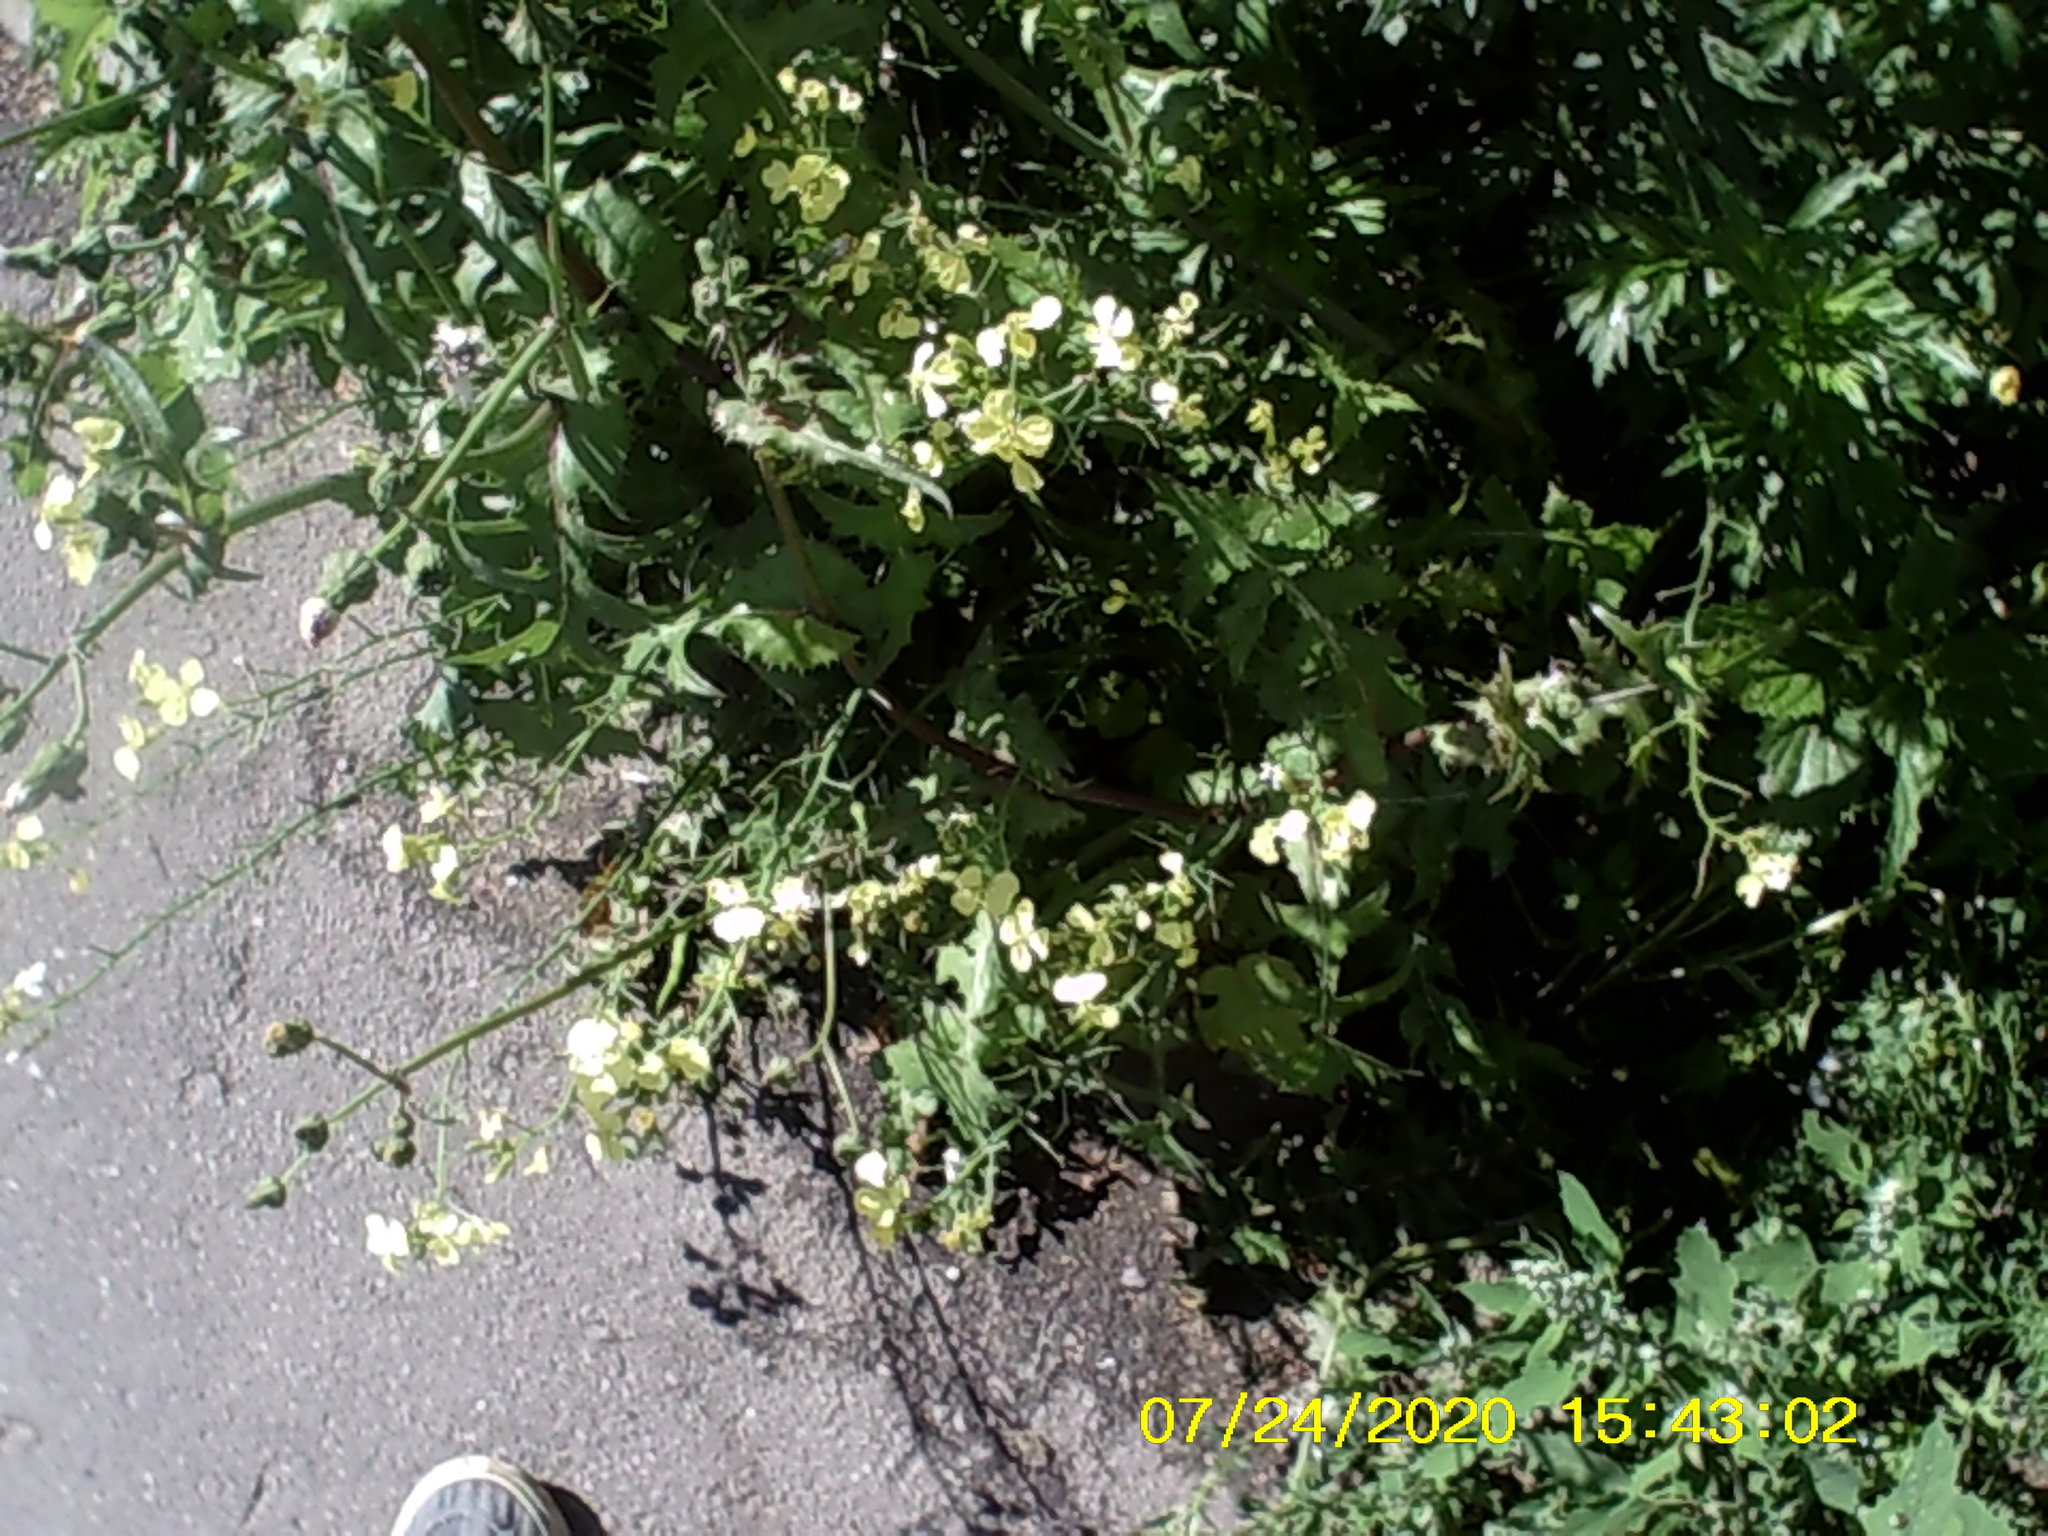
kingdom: Plantae
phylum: Tracheophyta
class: Magnoliopsida
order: Brassicales
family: Brassicaceae
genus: Raphanus
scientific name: Raphanus raphanistrum
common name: Wild radish
